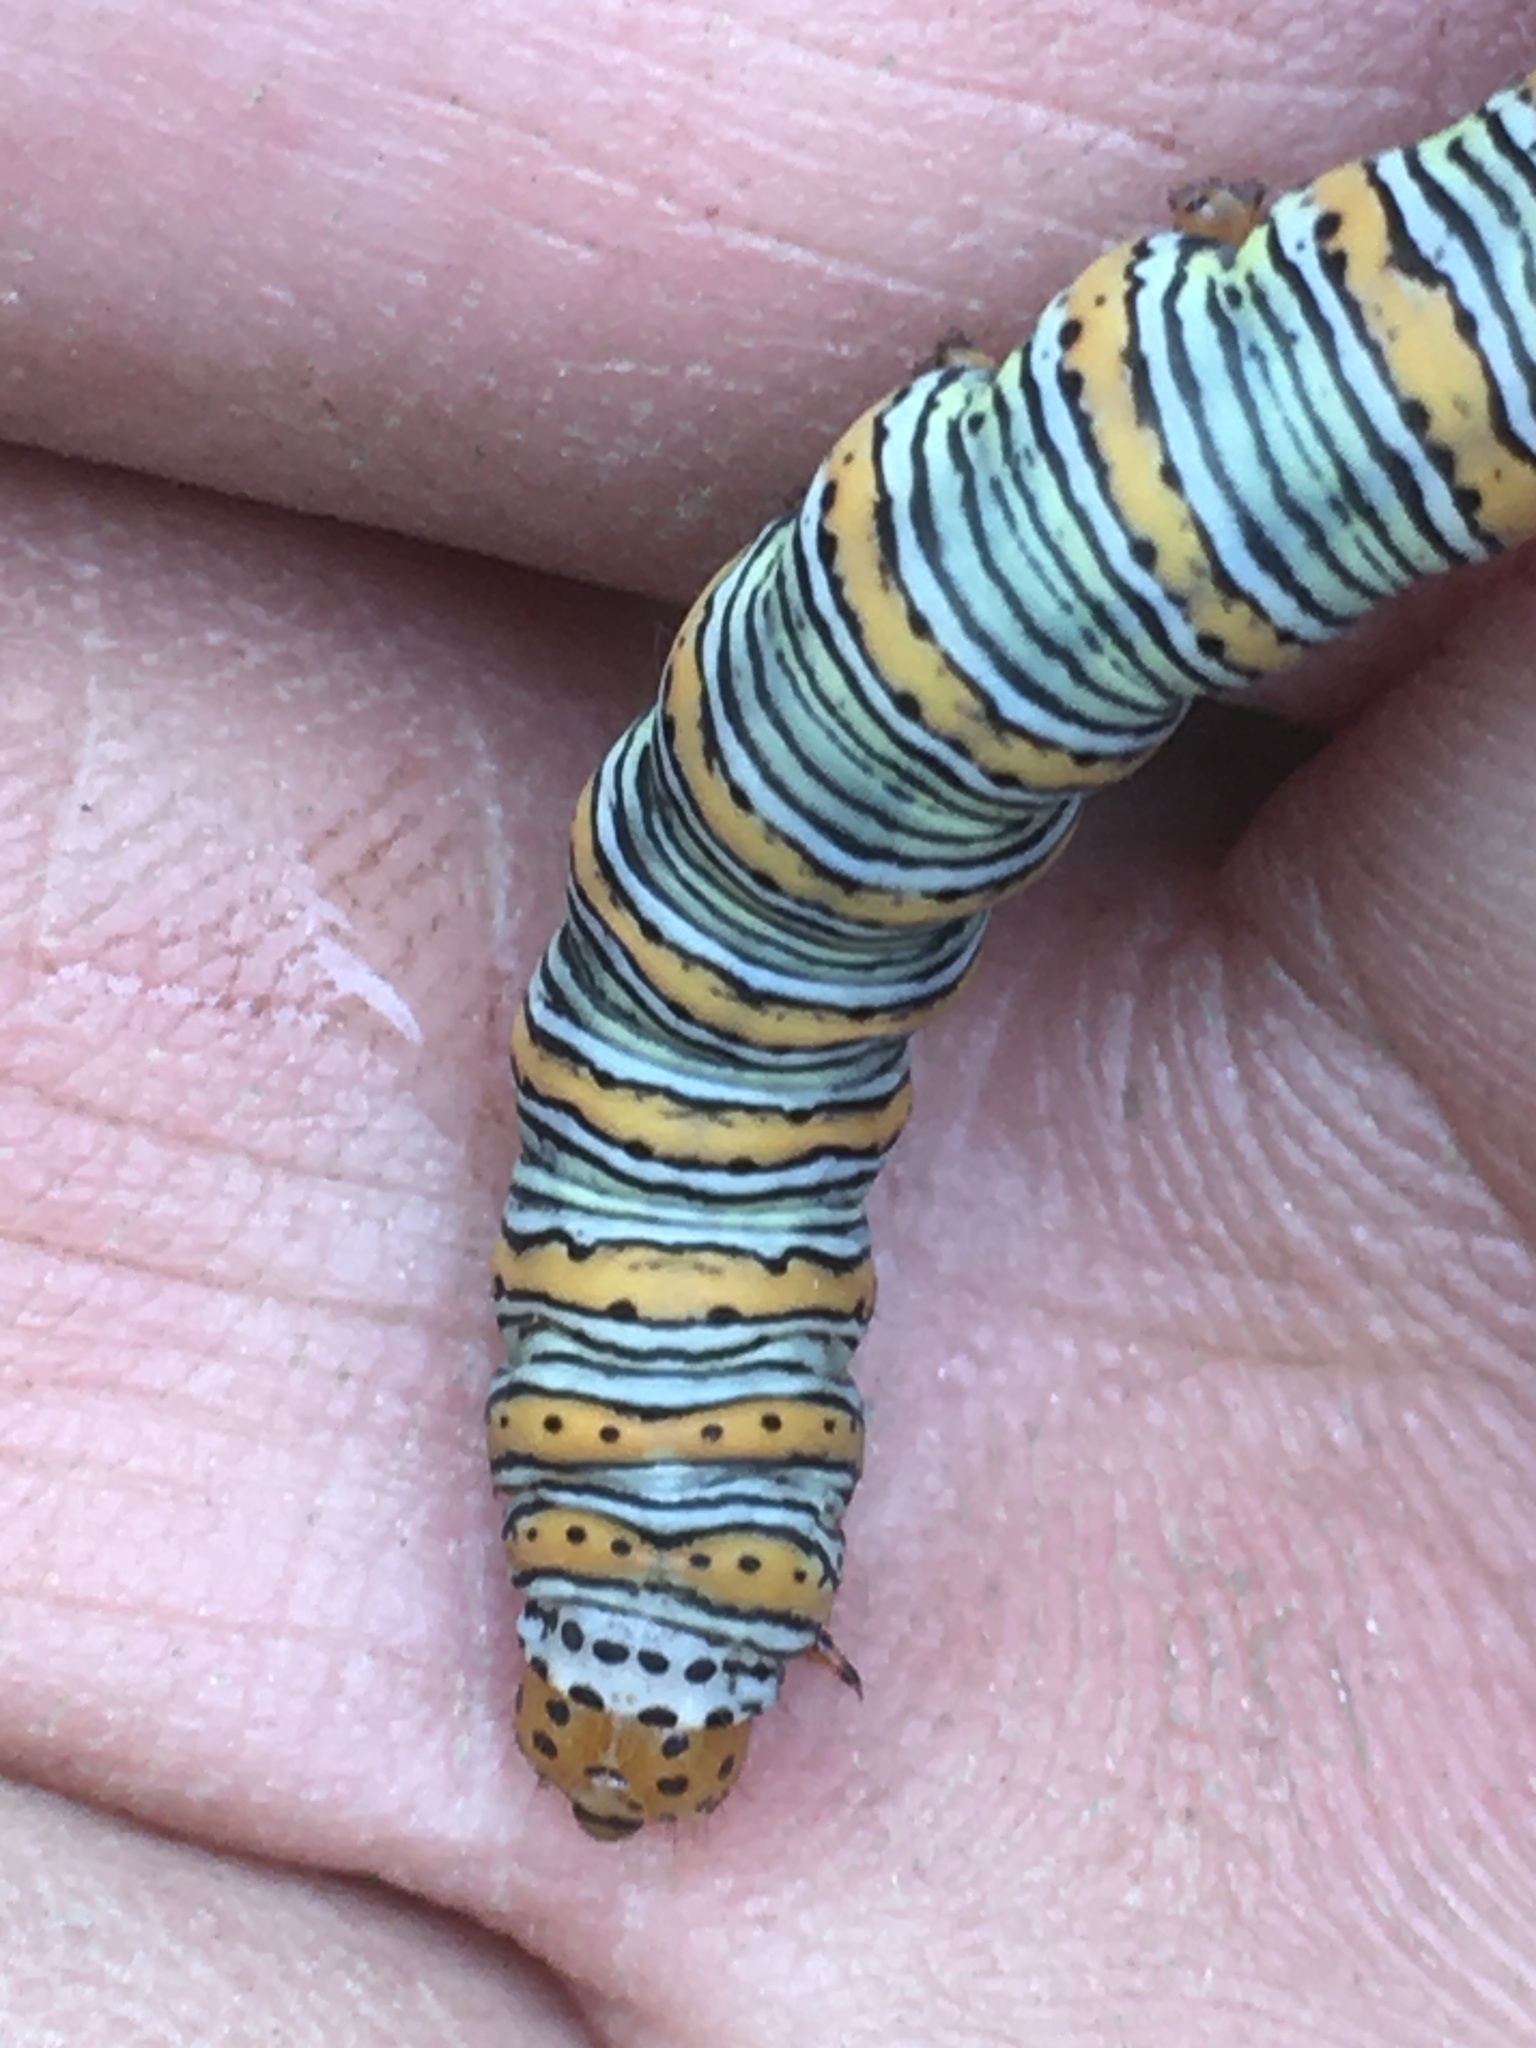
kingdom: Animalia
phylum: Arthropoda
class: Insecta
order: Lepidoptera
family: Noctuidae
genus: Eudryas
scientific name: Eudryas unio
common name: Pearly wood-nymph
